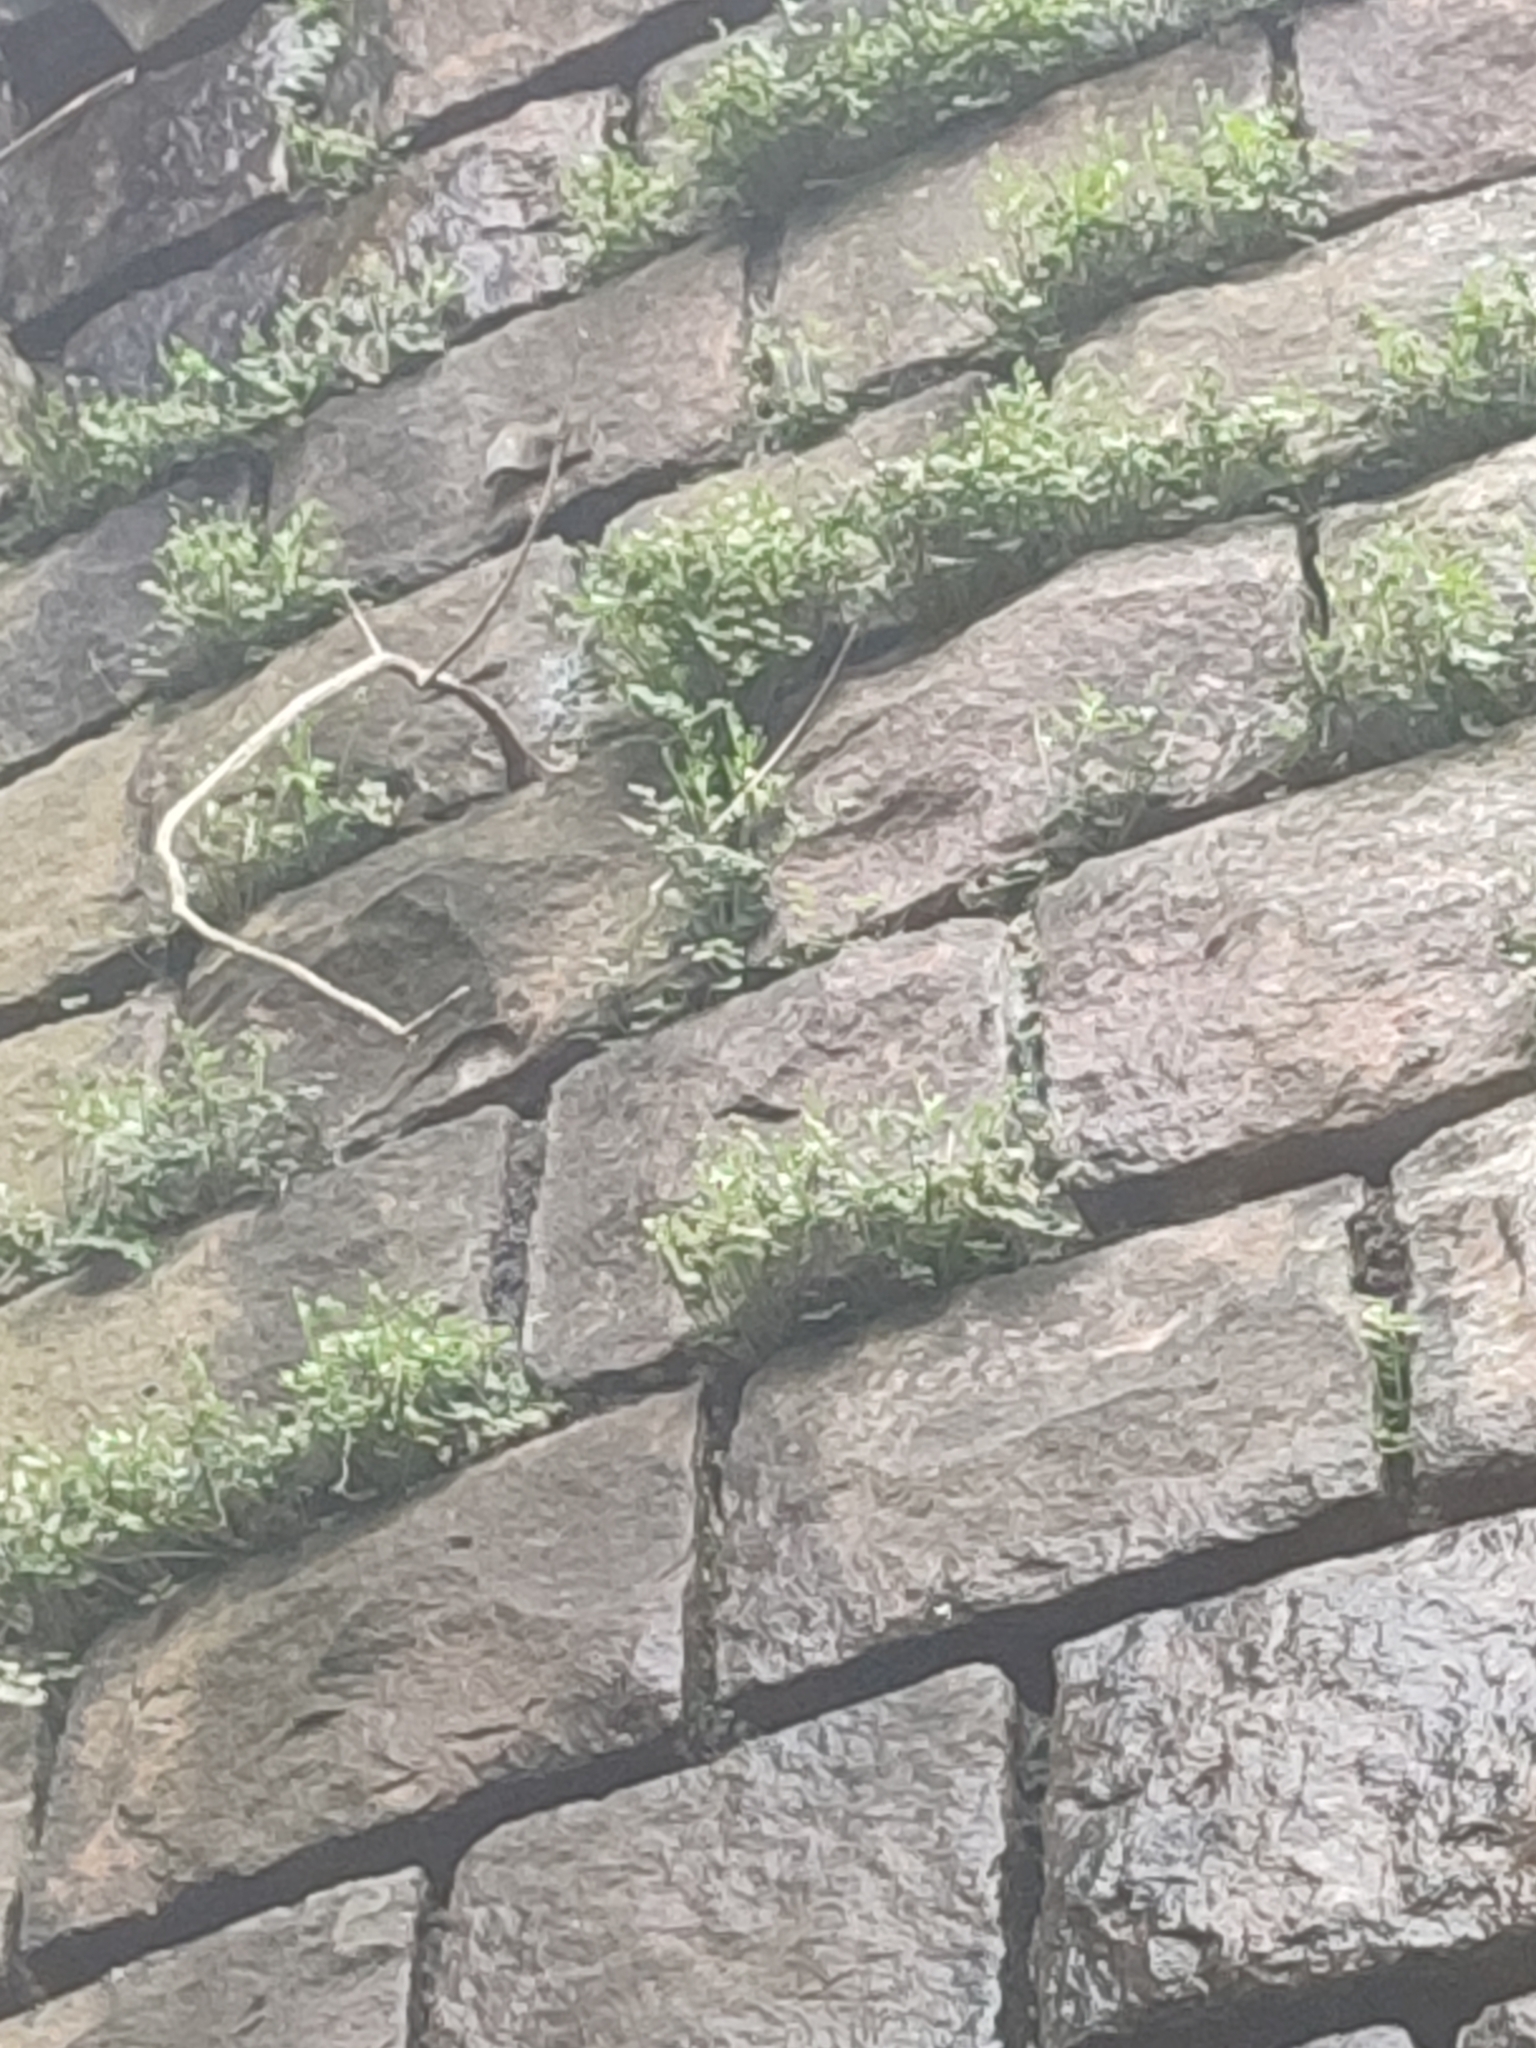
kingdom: Plantae
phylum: Tracheophyta
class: Polypodiopsida
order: Polypodiales
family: Aspleniaceae
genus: Asplenium
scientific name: Asplenium ruta-muraria
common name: Wall-rue
